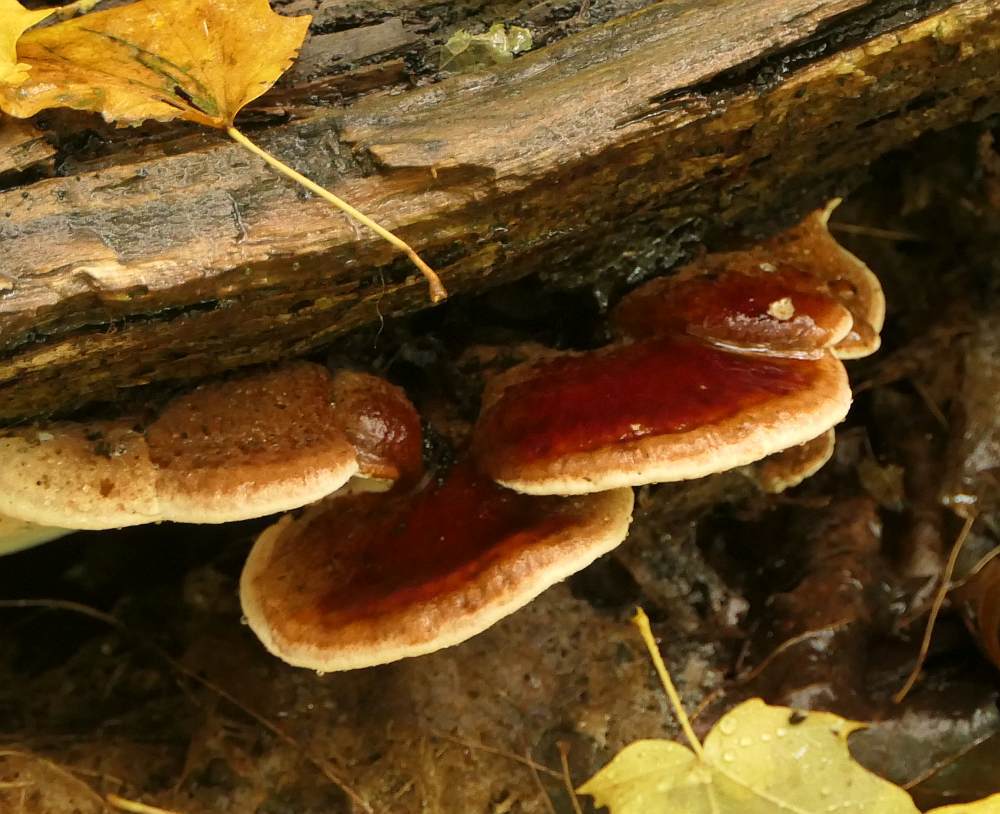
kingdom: Fungi
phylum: Basidiomycota
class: Agaricomycetes
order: Polyporales
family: Ischnodermataceae
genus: Ischnoderma
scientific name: Ischnoderma resinosum
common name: Resinous polypore
